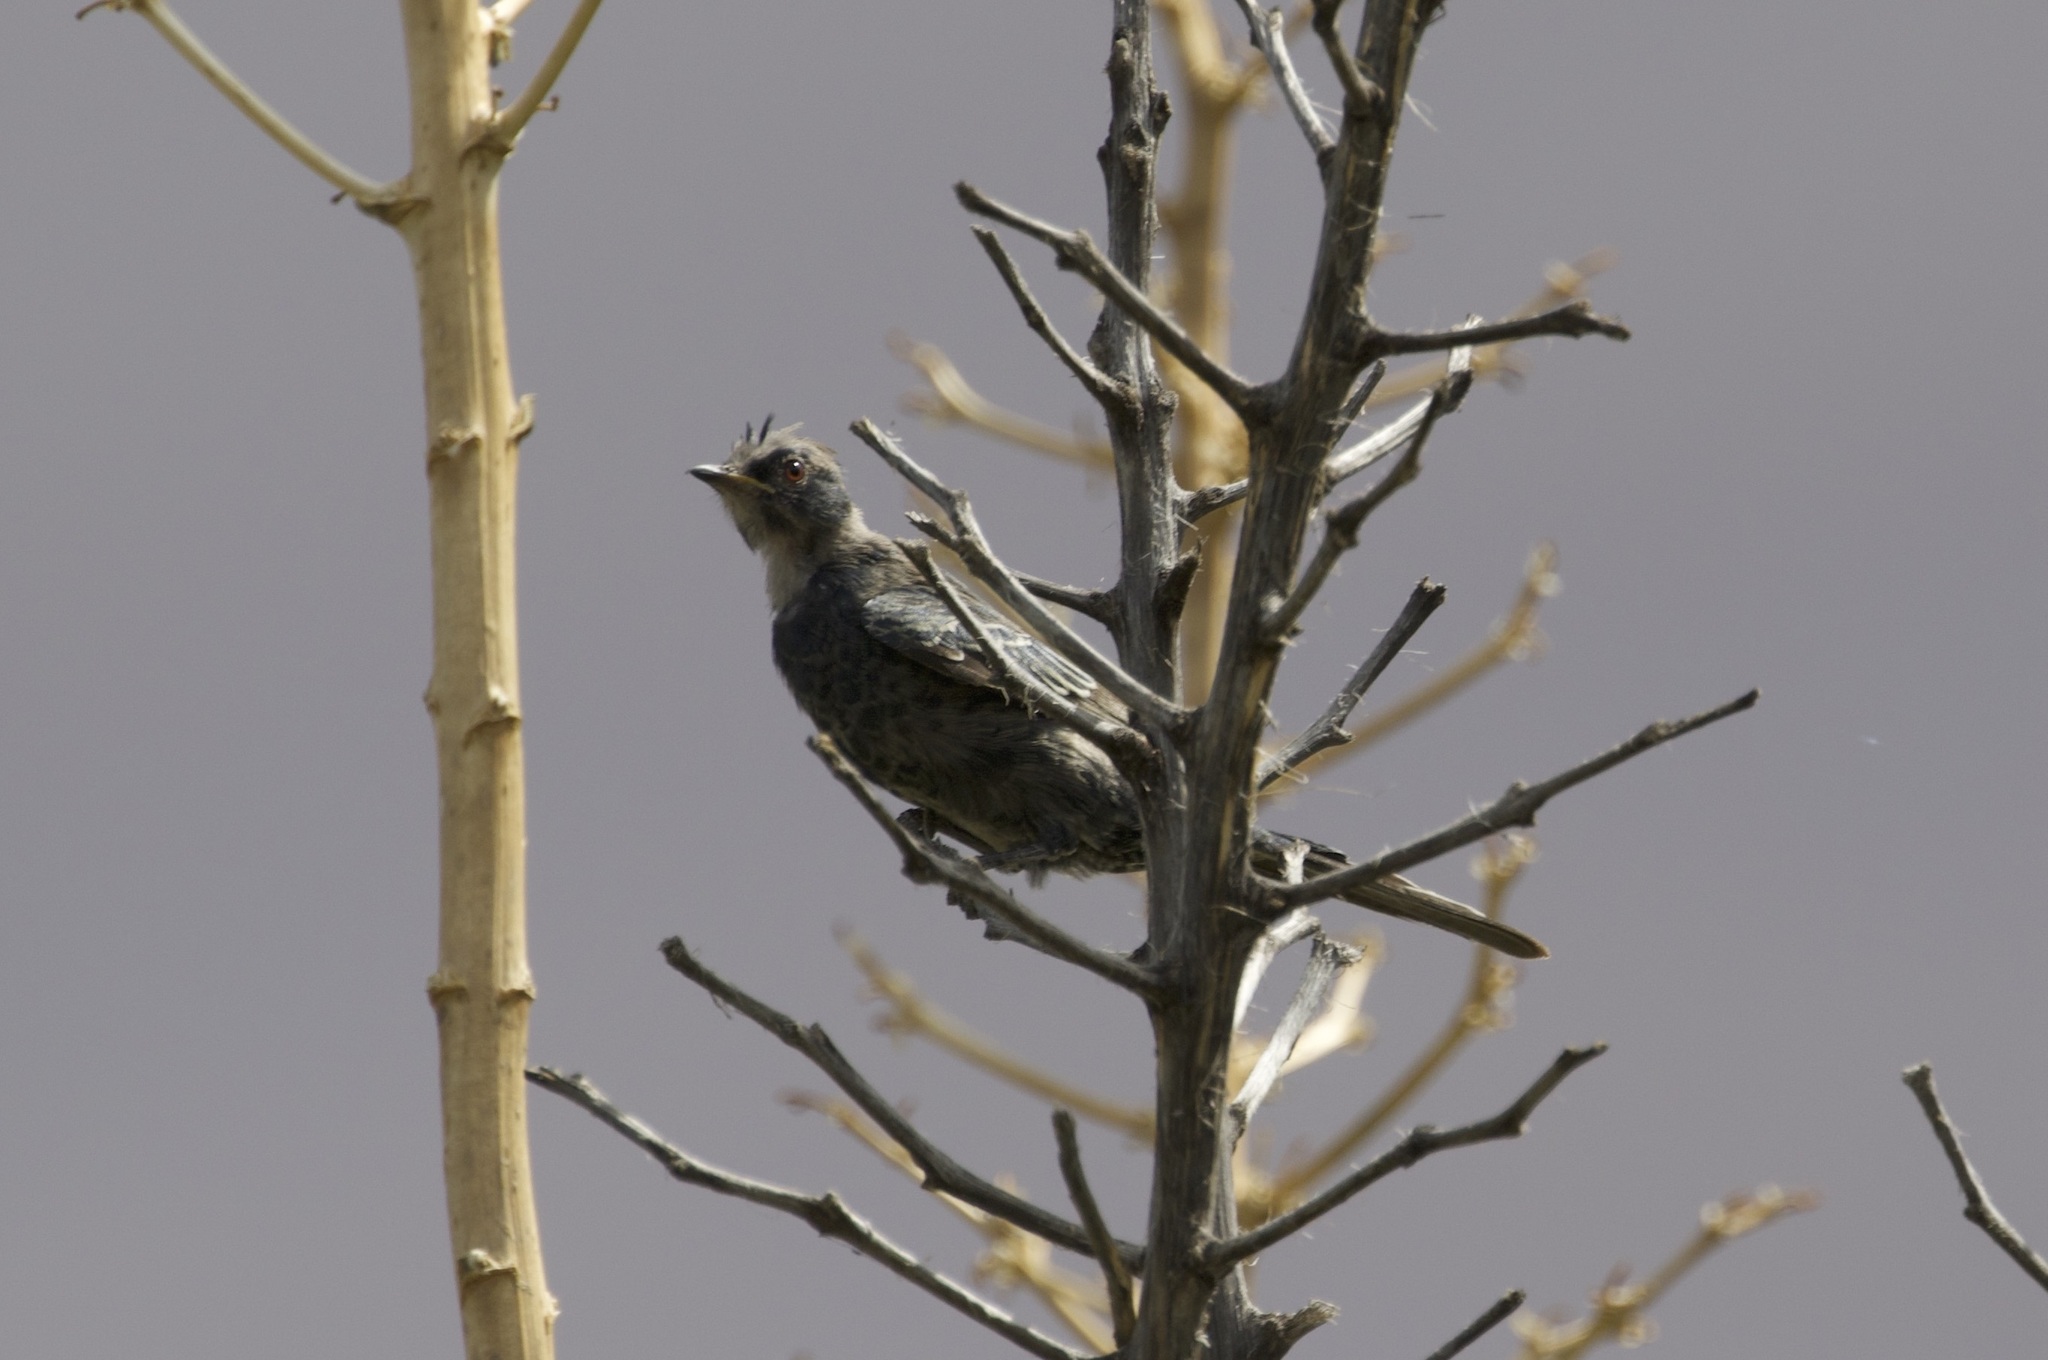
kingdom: Animalia
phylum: Chordata
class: Aves
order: Passeriformes
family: Ptilogonatidae
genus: Phainopepla
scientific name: Phainopepla nitens
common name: Phainopepla
